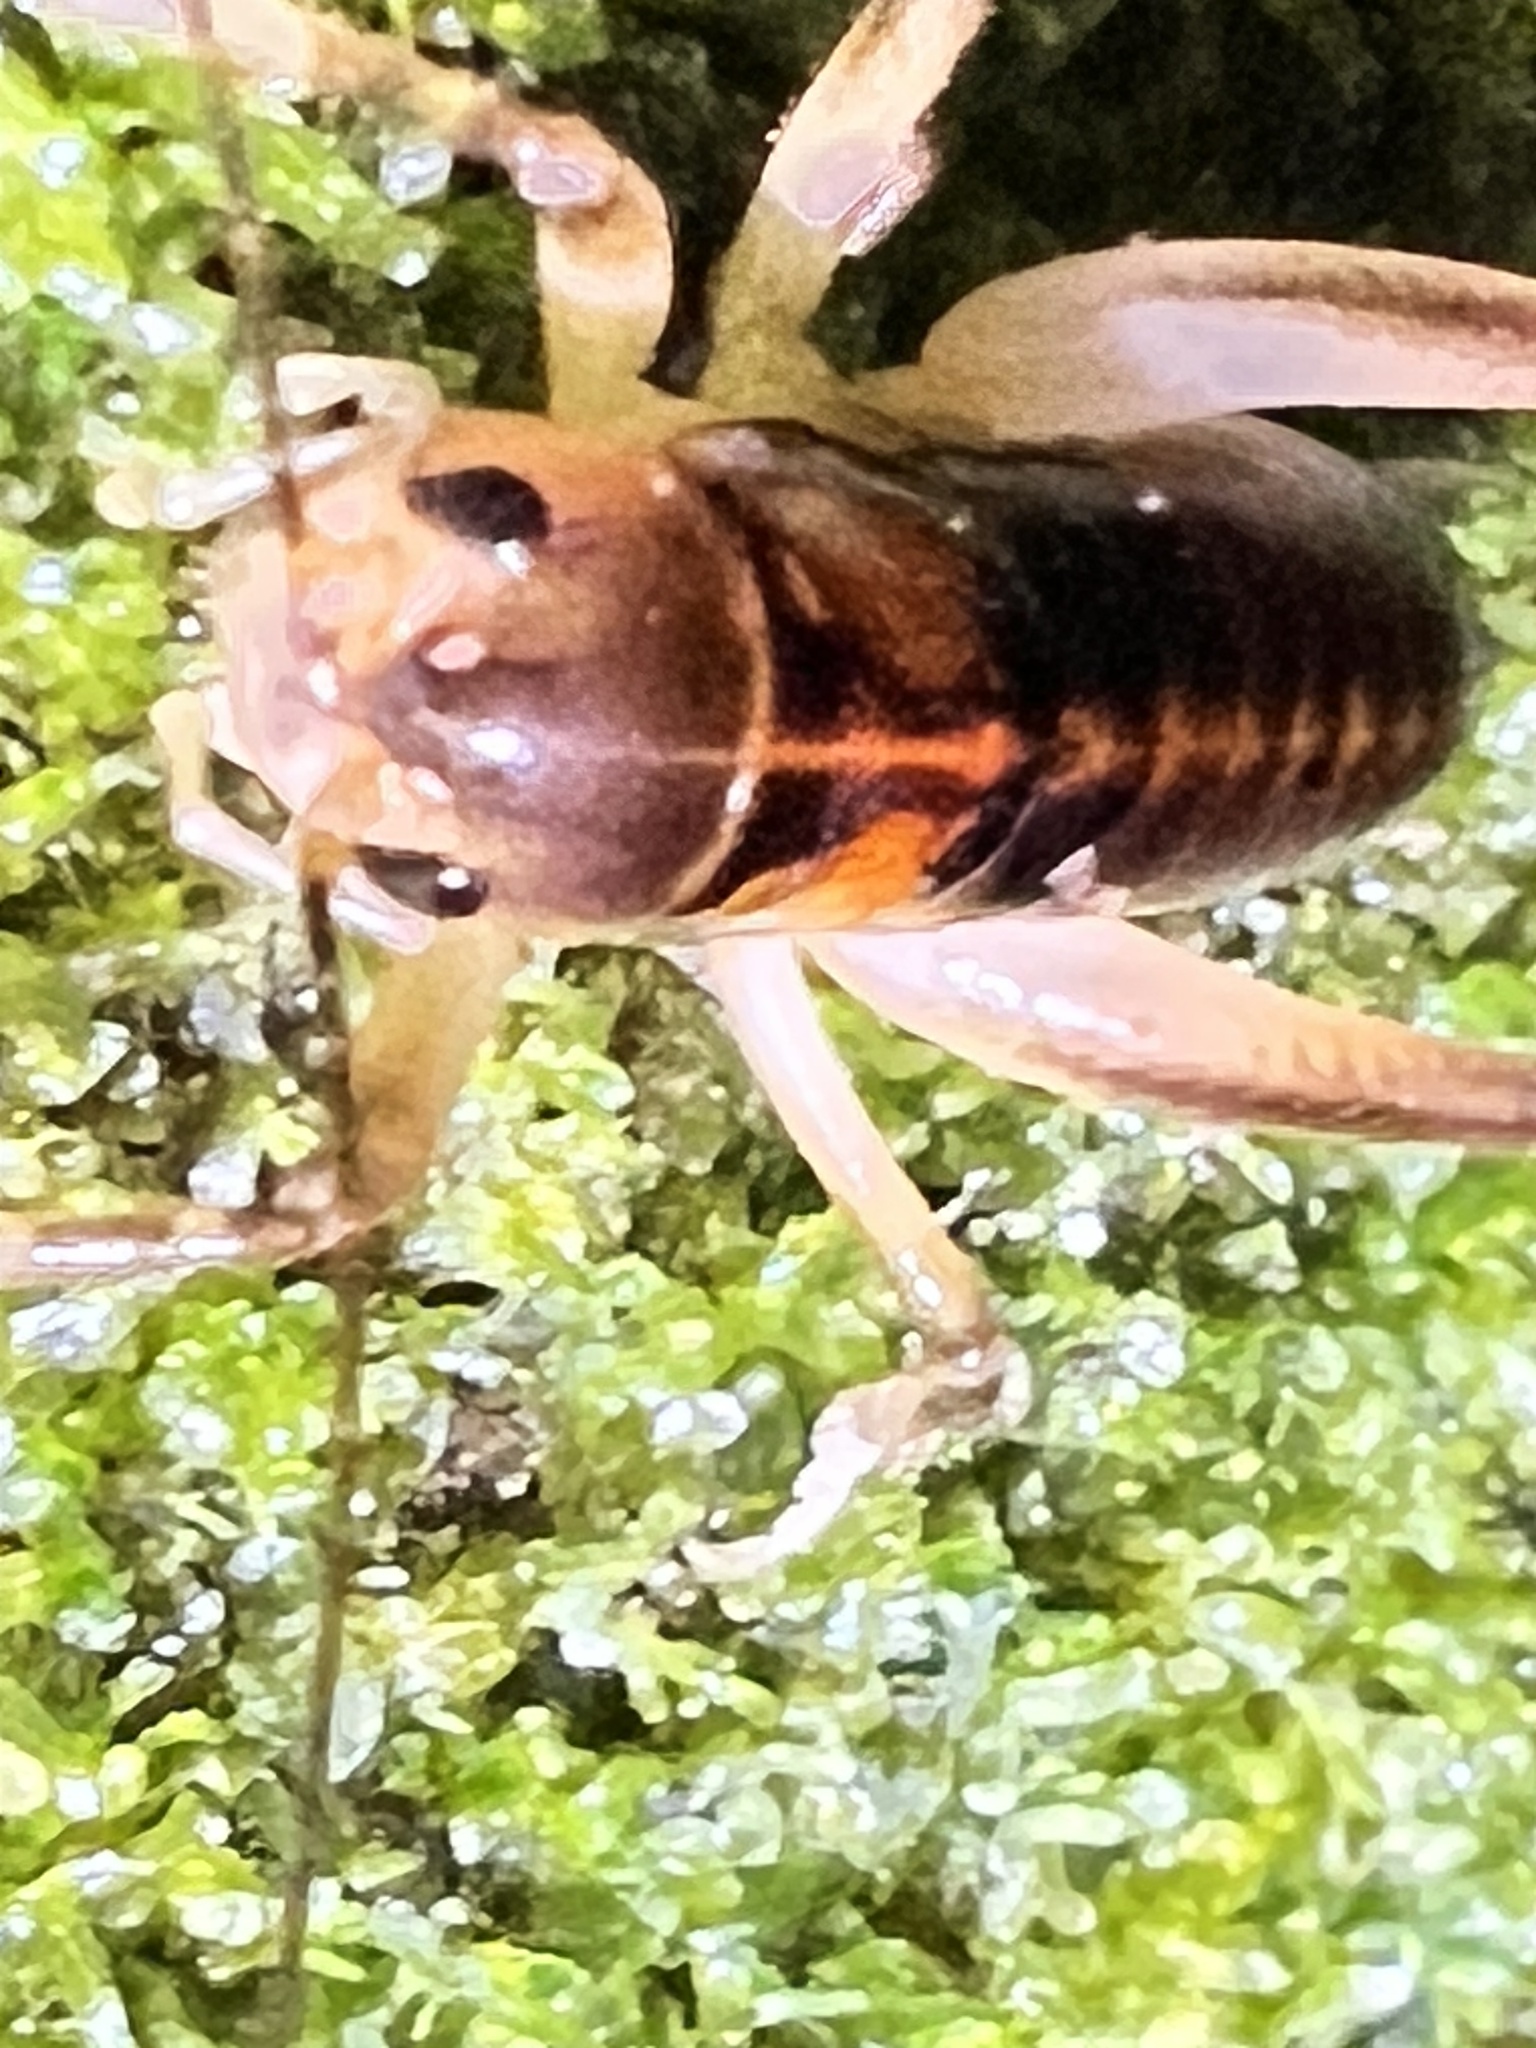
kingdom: Animalia
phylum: Arthropoda
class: Insecta
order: Orthoptera
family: Anostostomatidae
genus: Hemiandrus
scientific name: Hemiandrus pallitarsis
